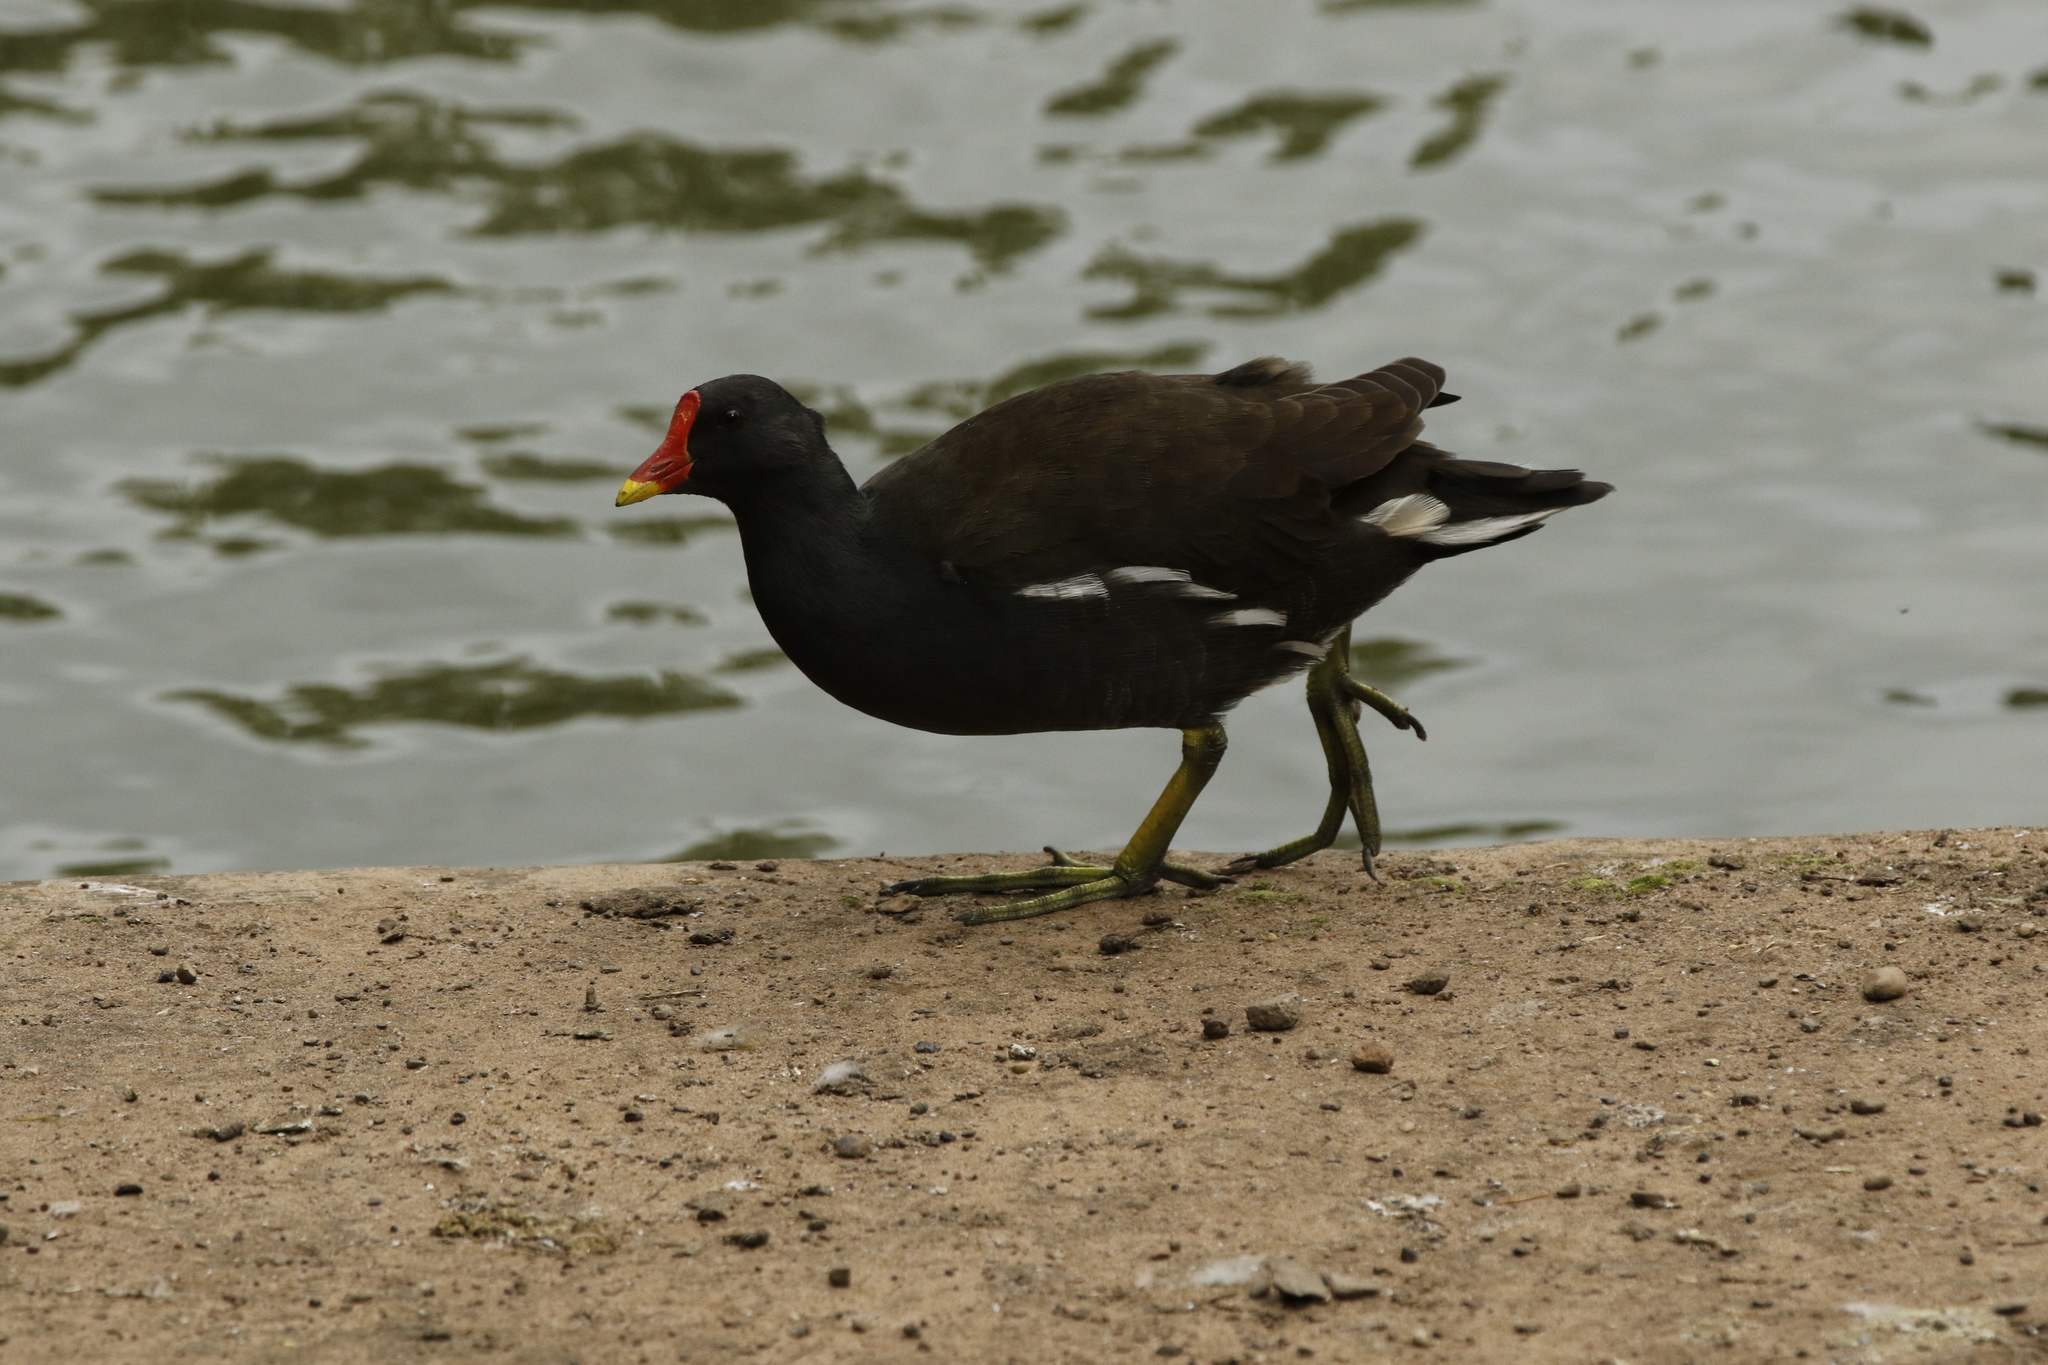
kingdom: Animalia
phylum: Chordata
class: Aves
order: Gruiformes
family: Rallidae
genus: Gallinula
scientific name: Gallinula chloropus
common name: Common moorhen
